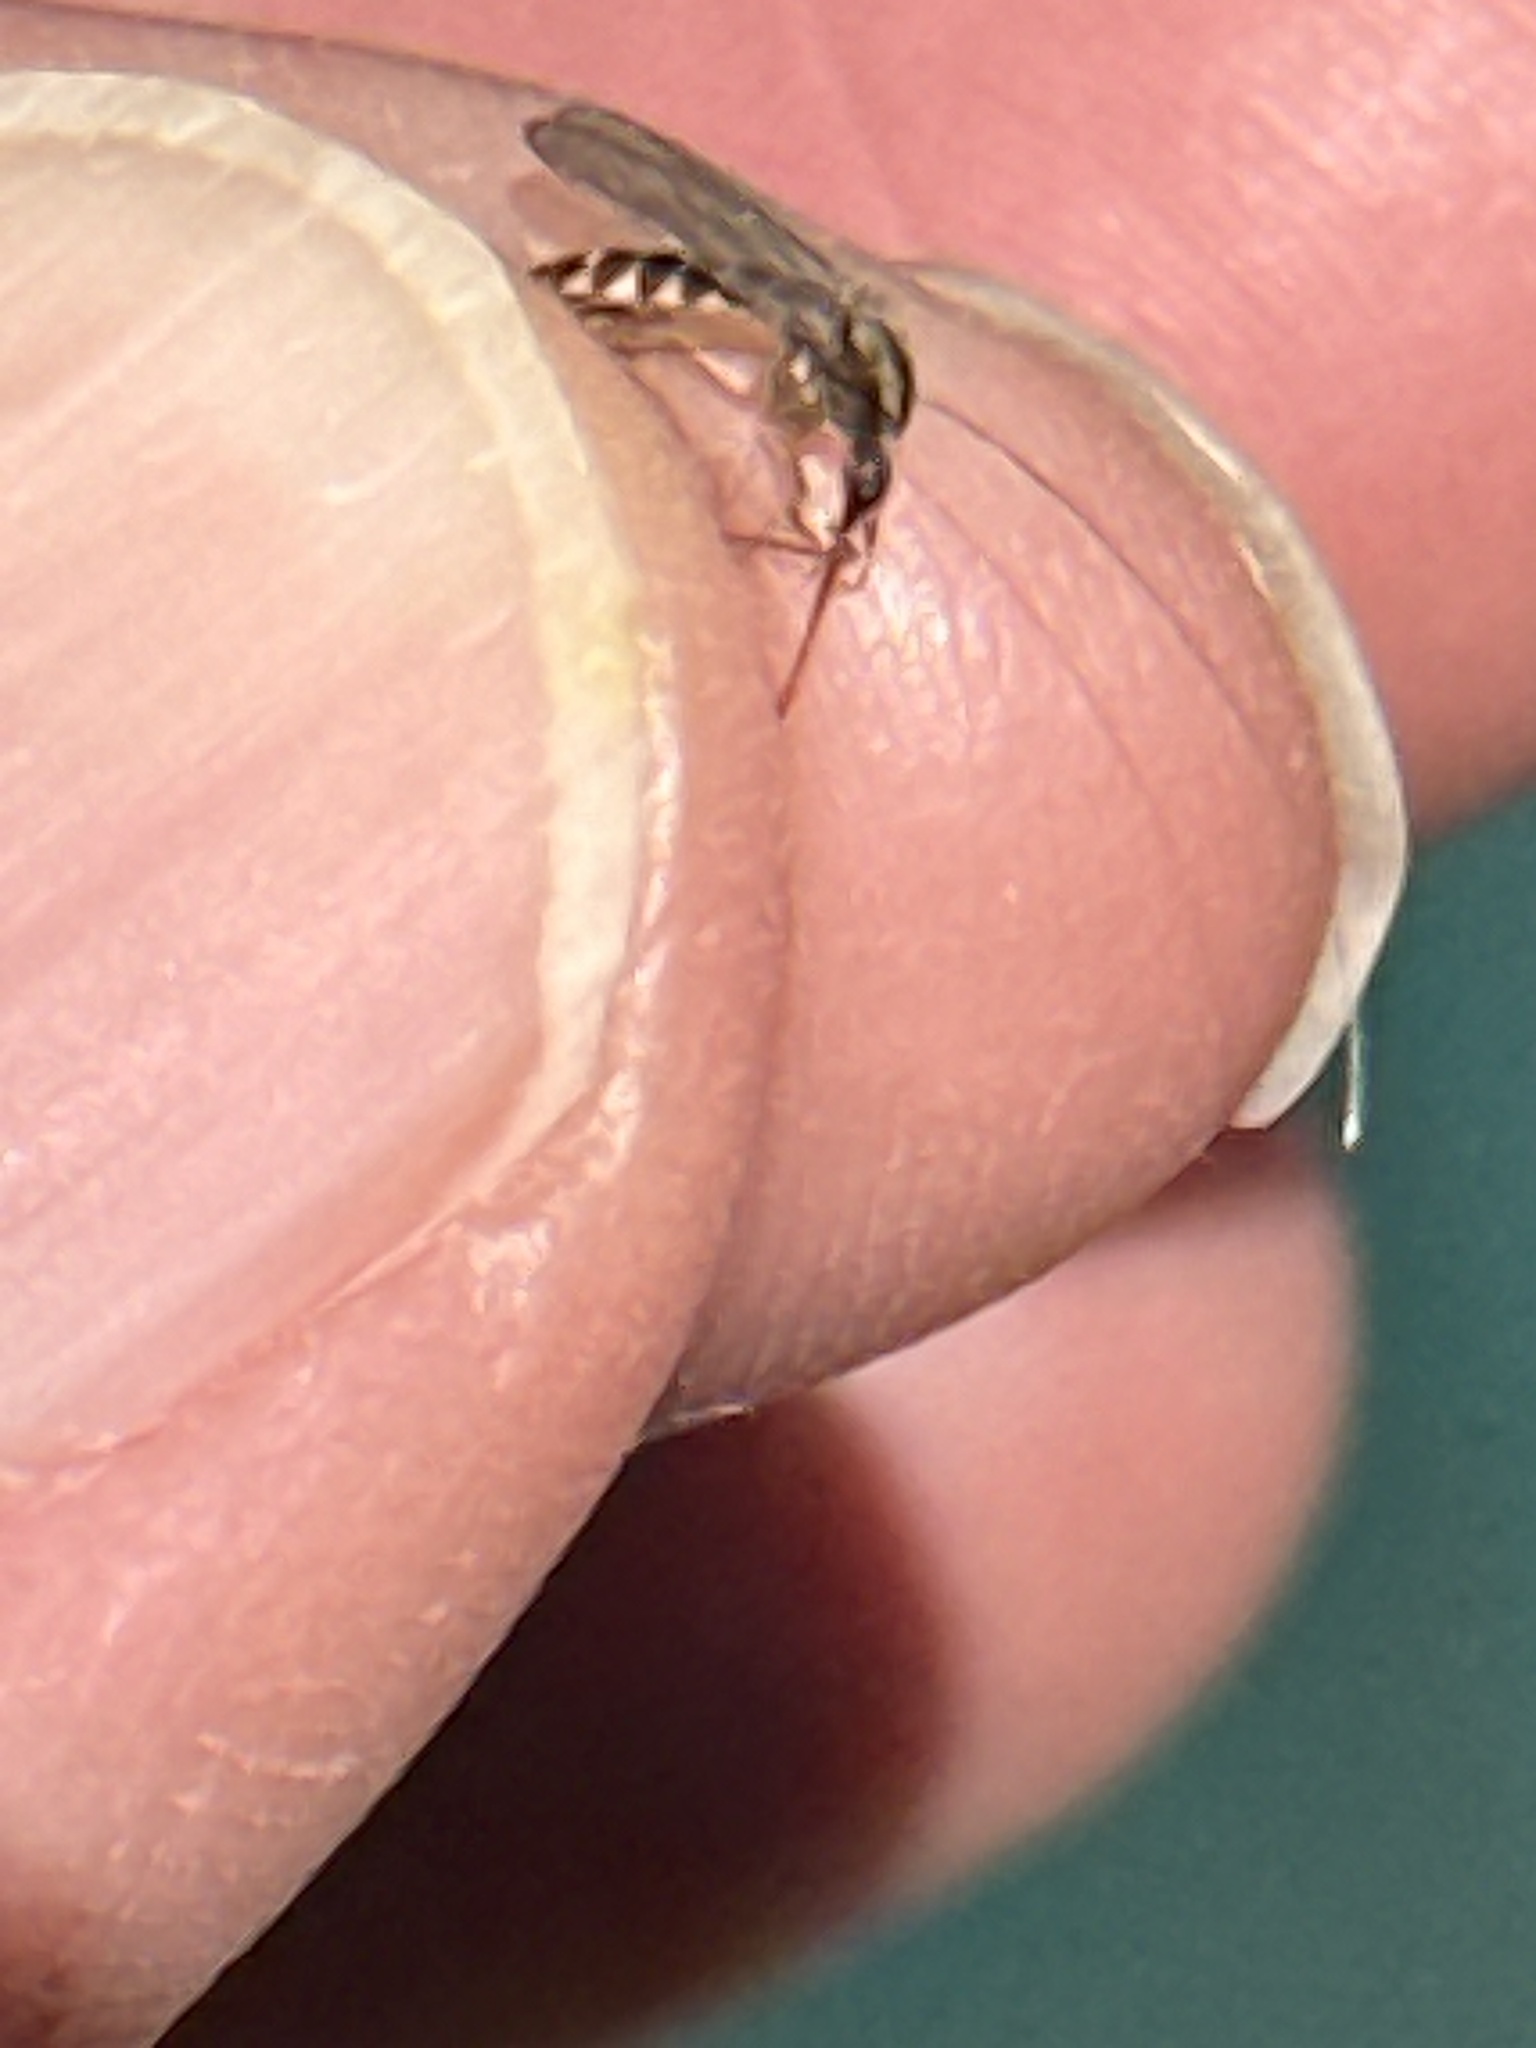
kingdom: Animalia
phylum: Arthropoda
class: Insecta
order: Diptera
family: Culicidae
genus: Aedes
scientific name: Aedes trivittatus
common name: Plains floodwater mosquito
